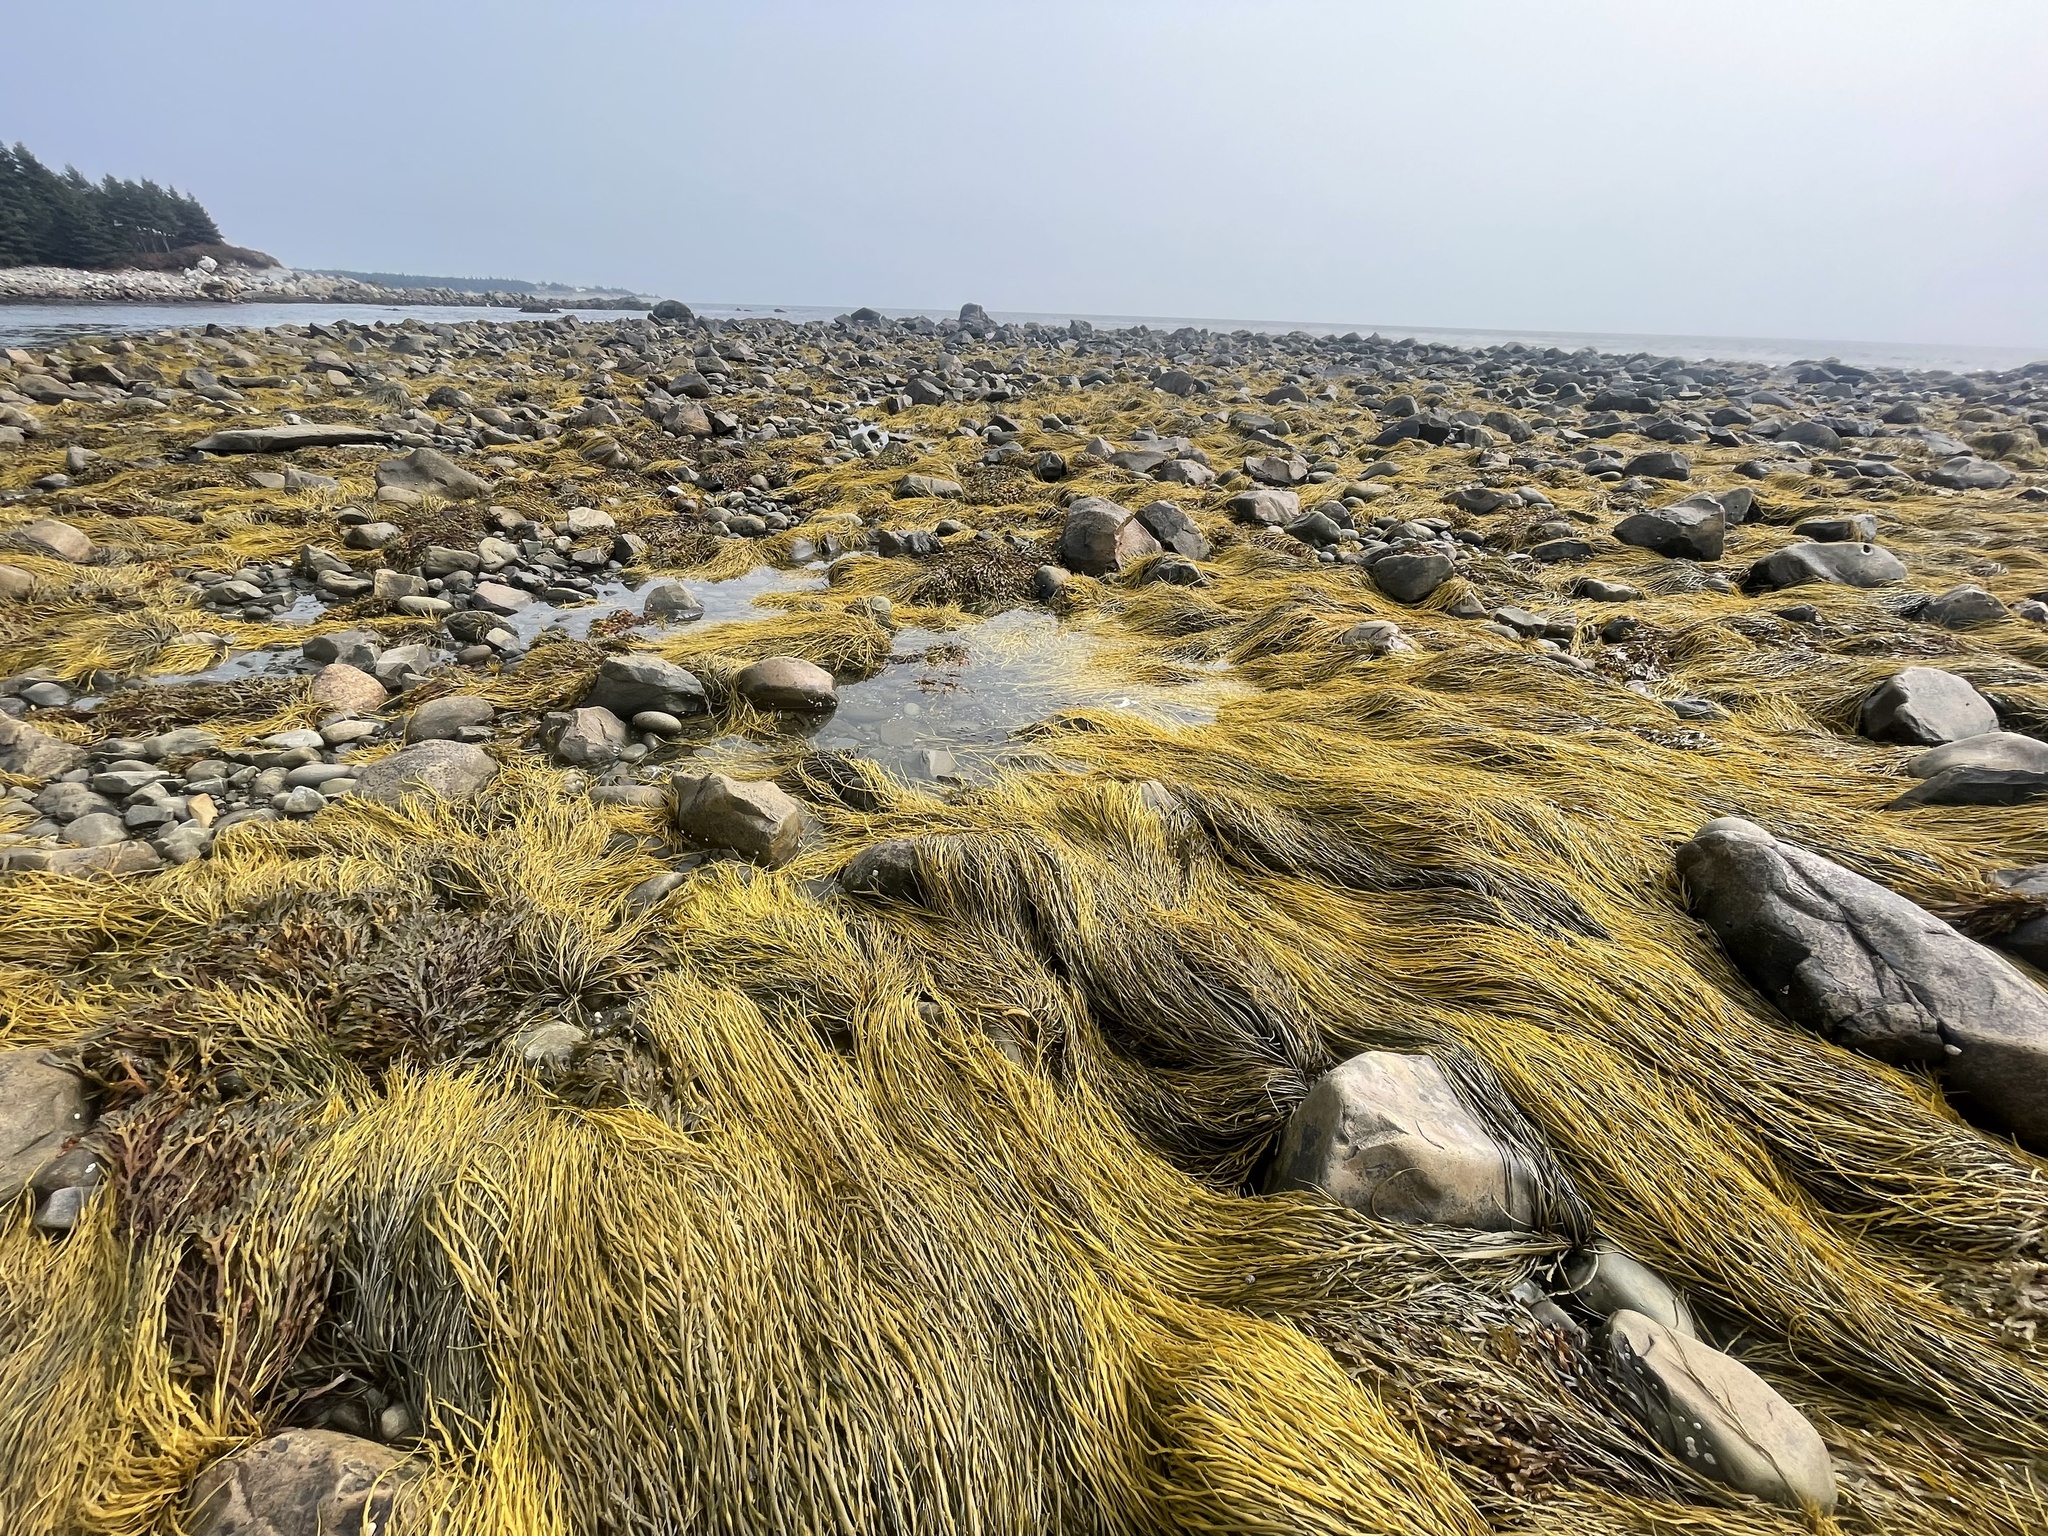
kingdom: Chromista
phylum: Ochrophyta
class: Phaeophyceae
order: Fucales
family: Fucaceae
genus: Ascophyllum
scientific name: Ascophyllum nodosum
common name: Knotted wrack
